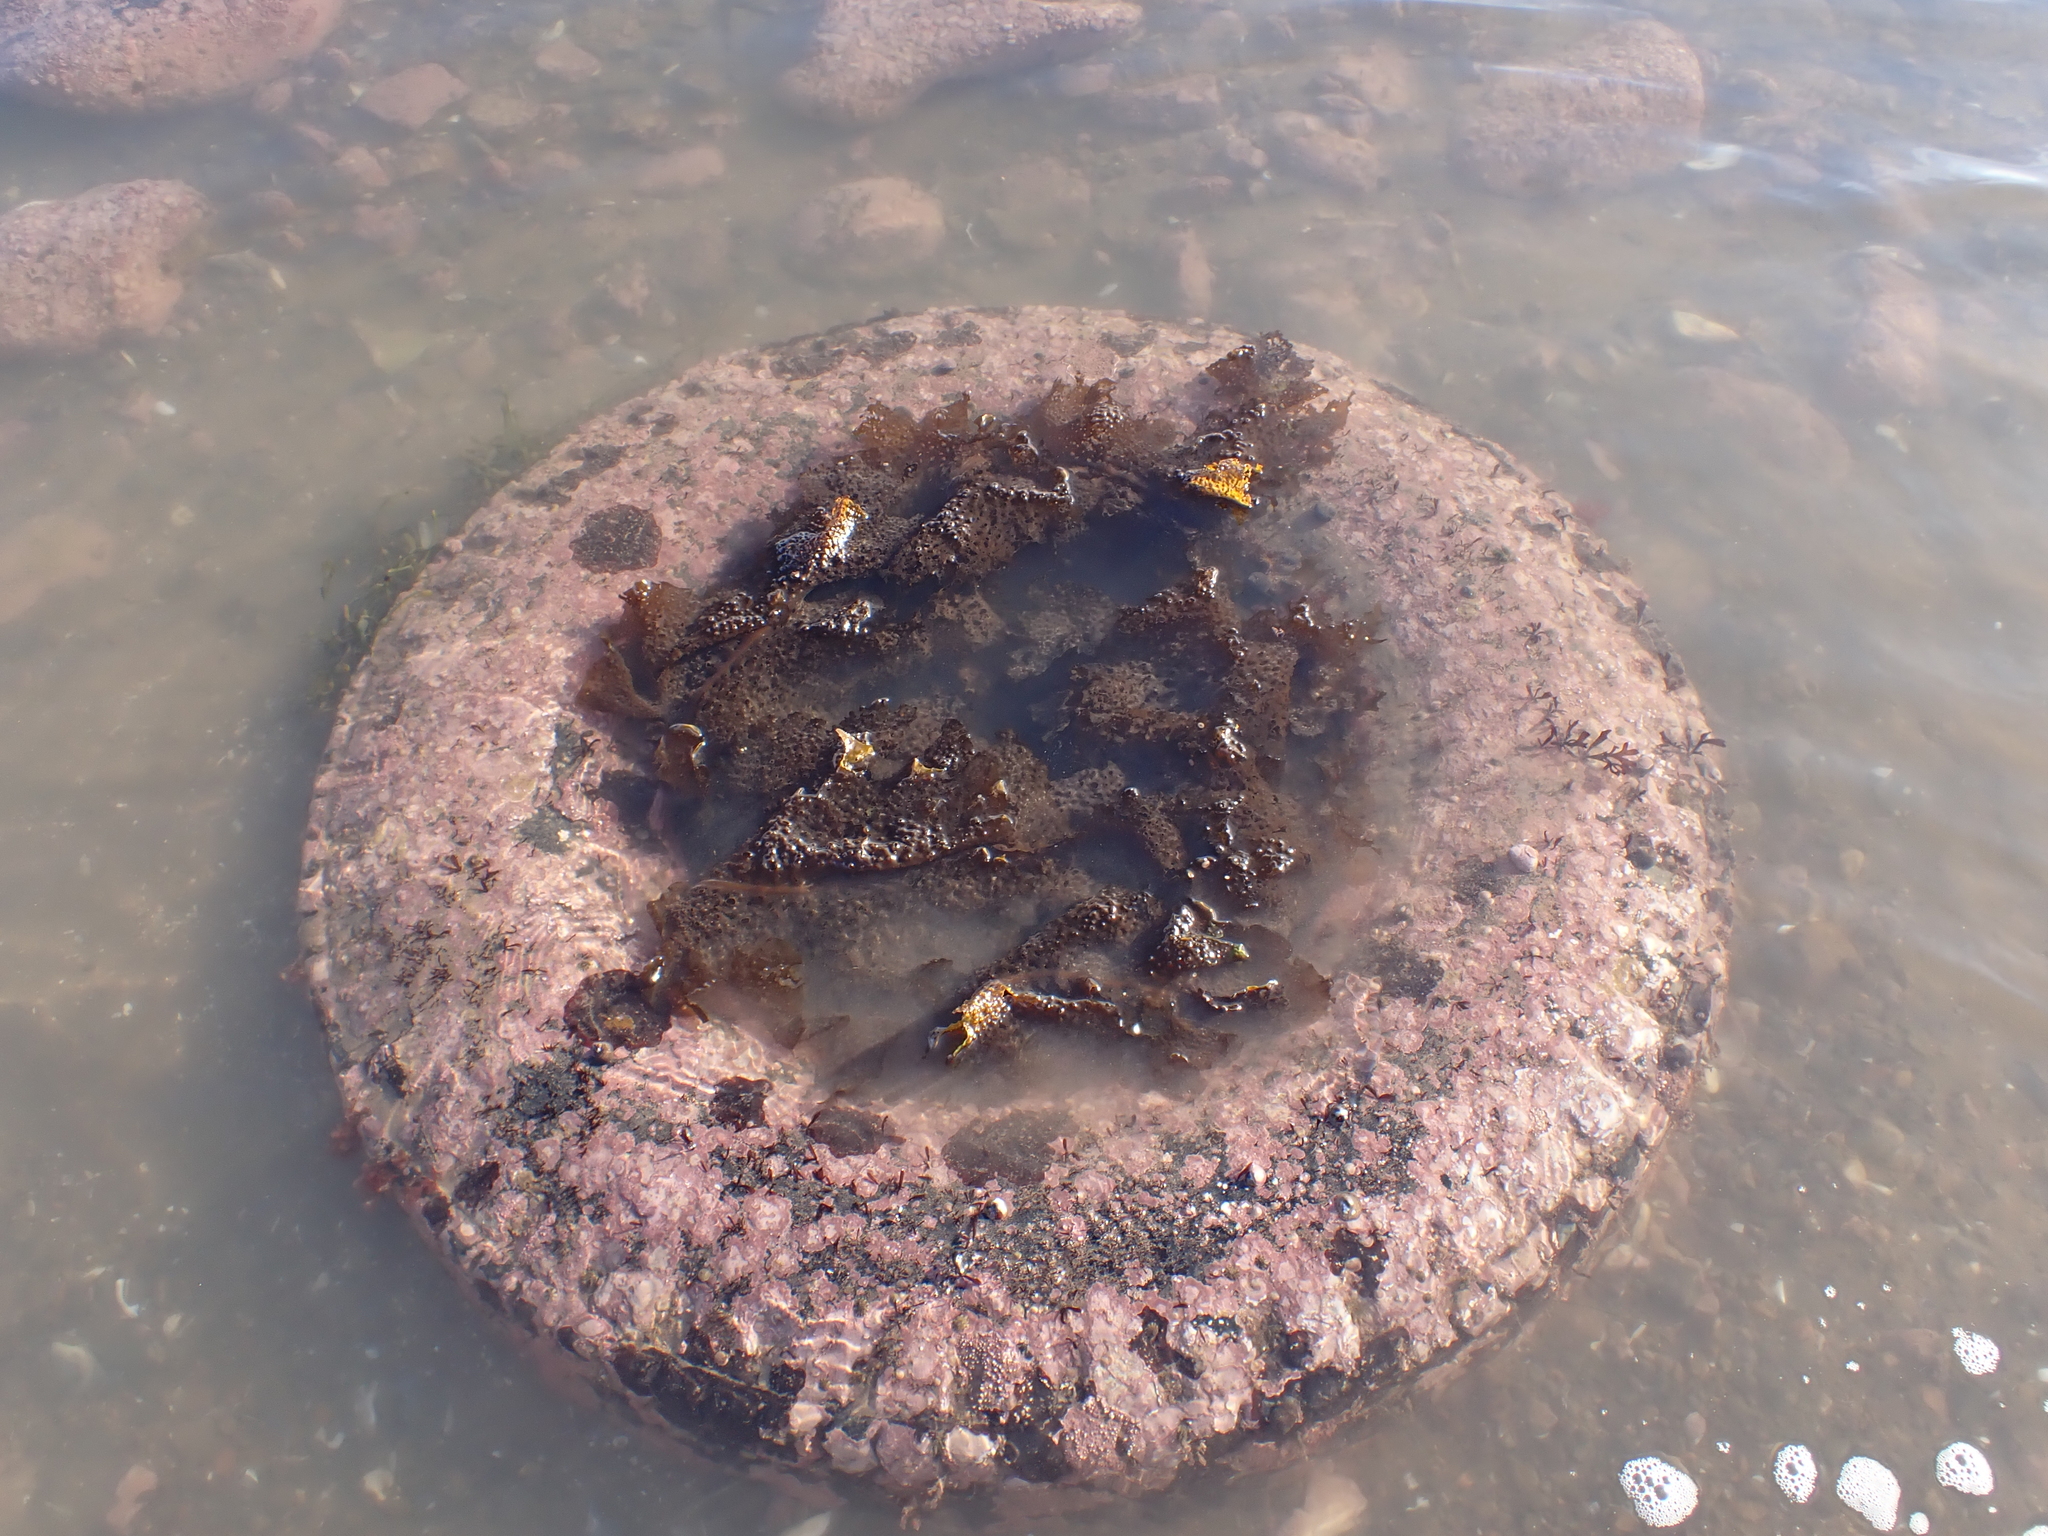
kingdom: Chromista
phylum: Ochrophyta
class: Phaeophyceae
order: Laminariales
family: Costariaceae
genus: Agarum
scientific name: Agarum clathratum
